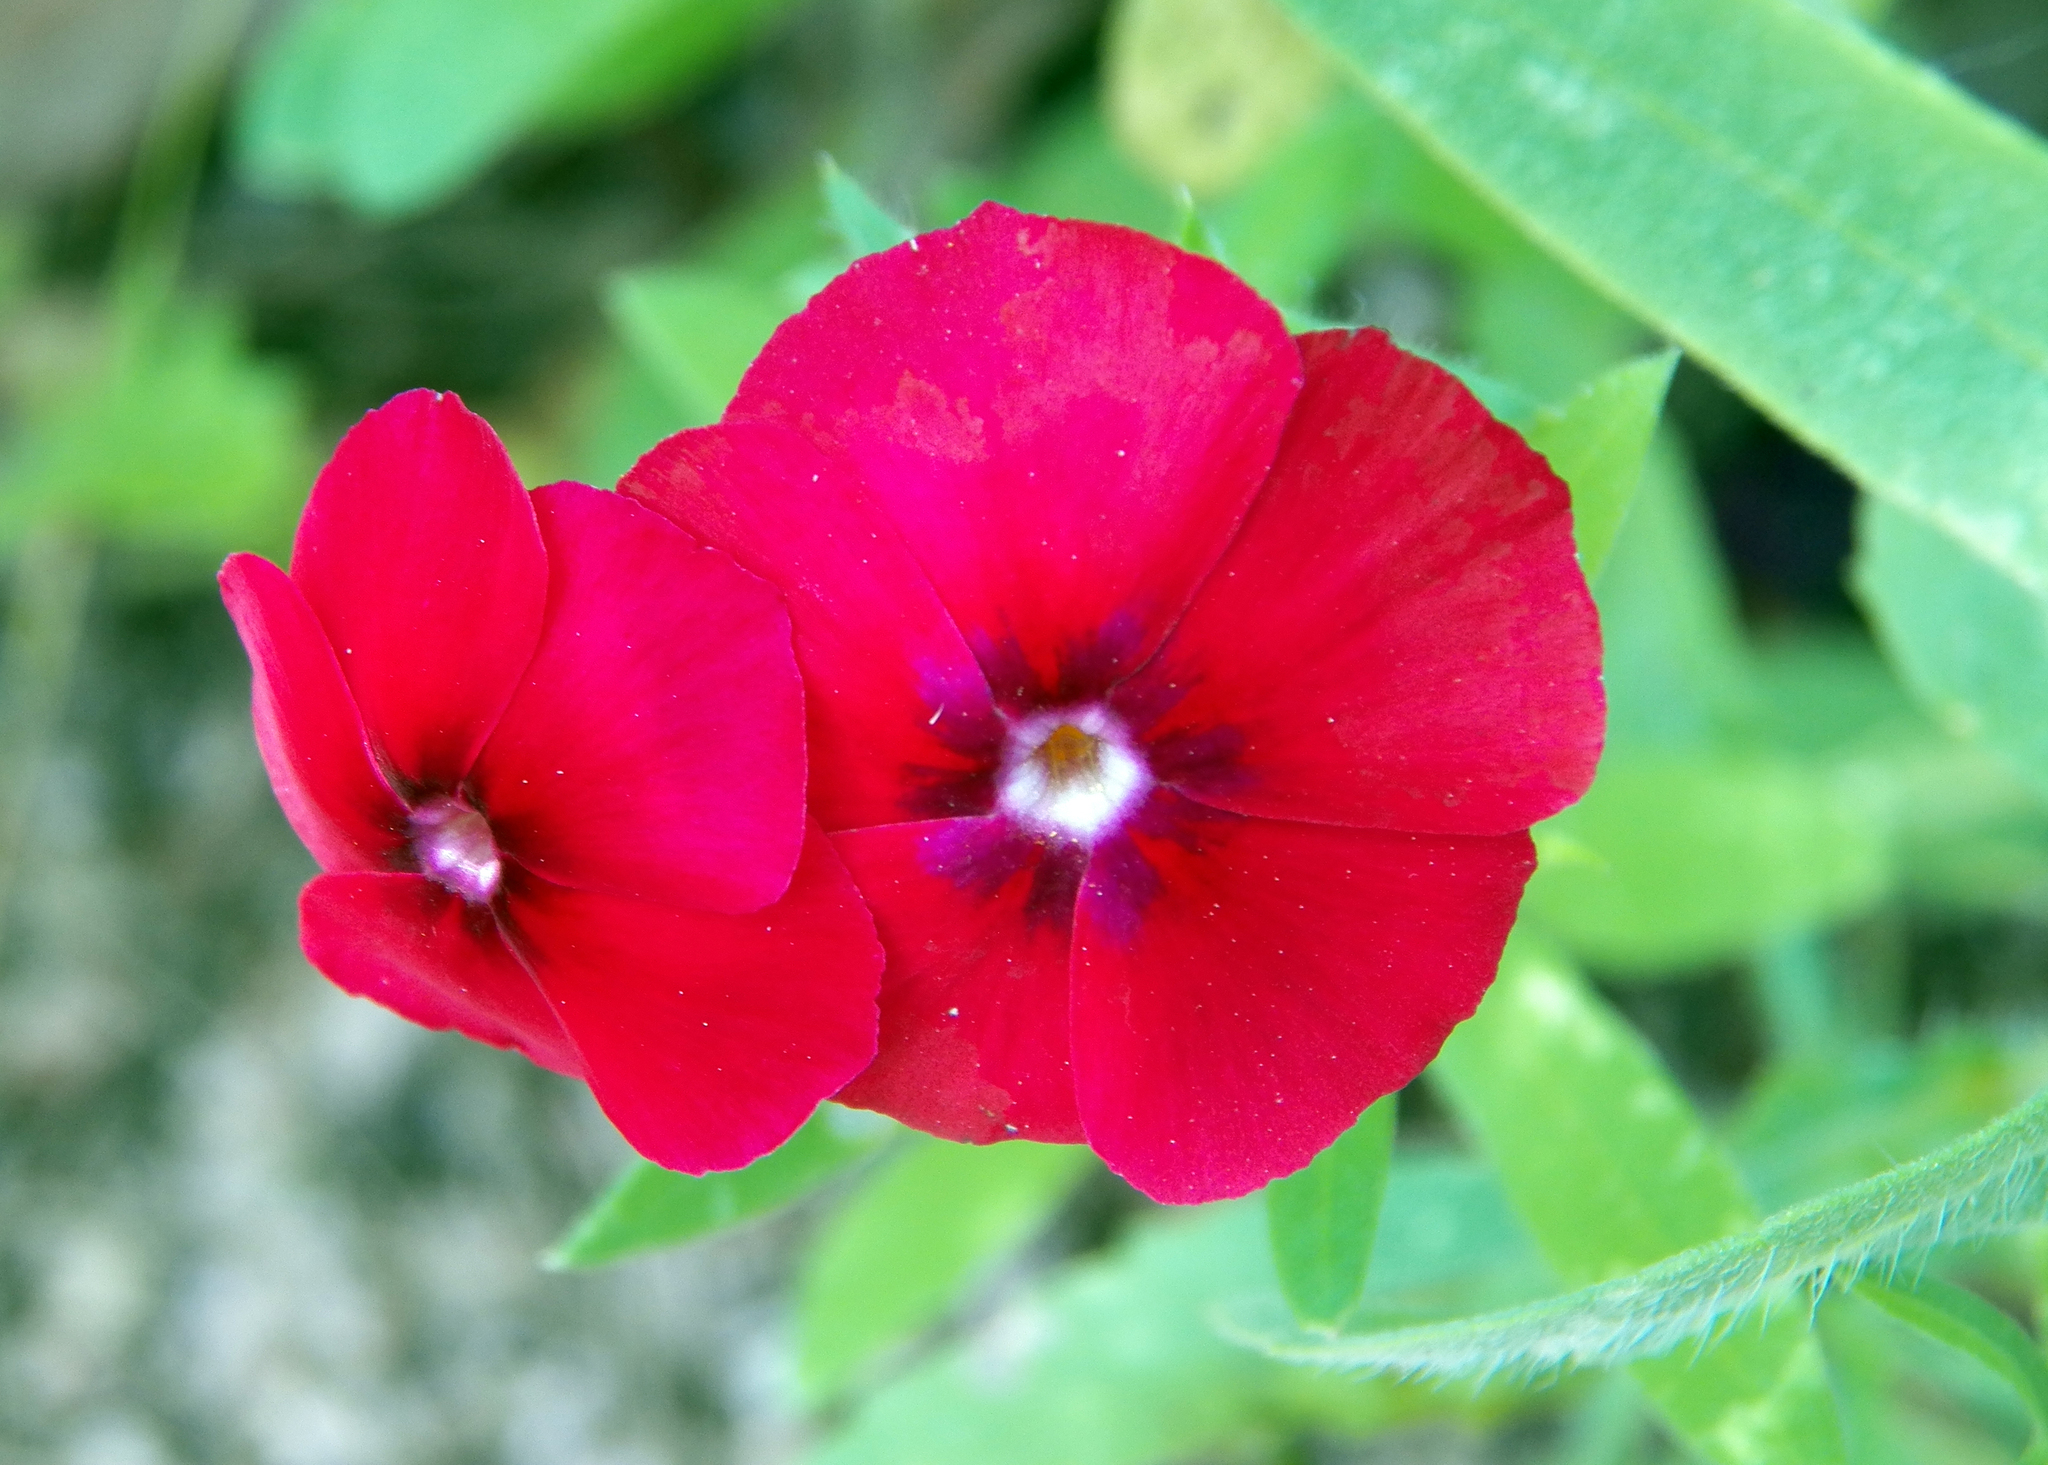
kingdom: Plantae
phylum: Tracheophyta
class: Magnoliopsida
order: Ericales
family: Polemoniaceae
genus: Phlox
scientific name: Phlox drummondii
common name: Drummond's phlox
